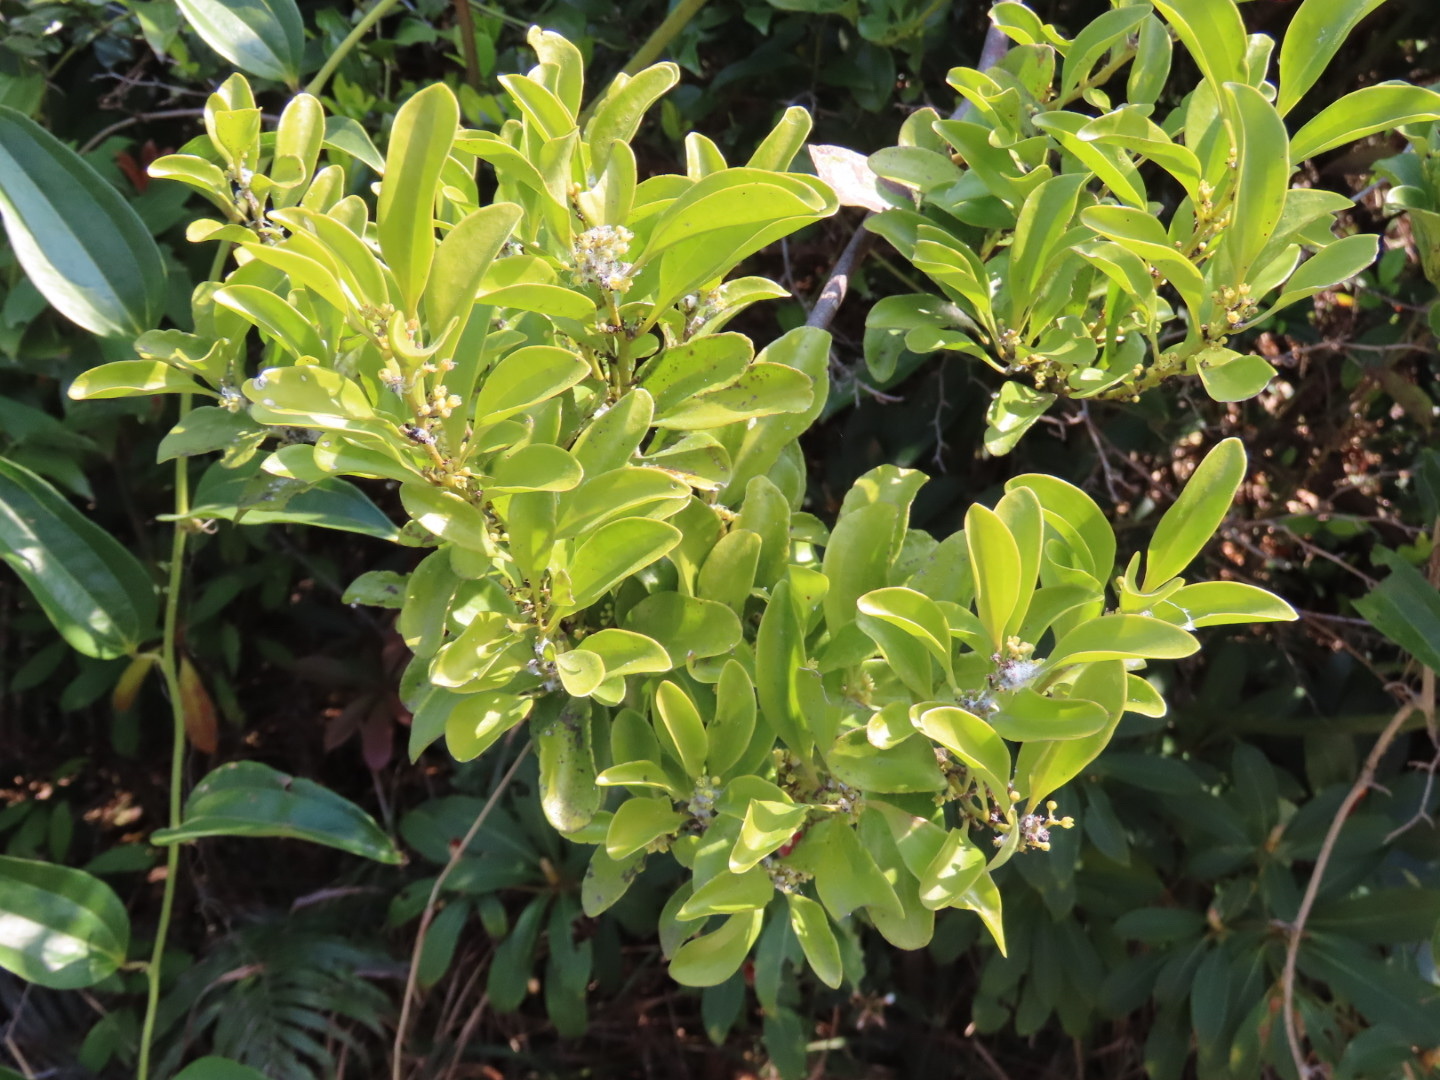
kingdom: Plantae
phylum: Tracheophyta
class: Magnoliopsida
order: Santalales
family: Amphorogynaceae
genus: Dendrotrophe
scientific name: Dendrotrophe varians
